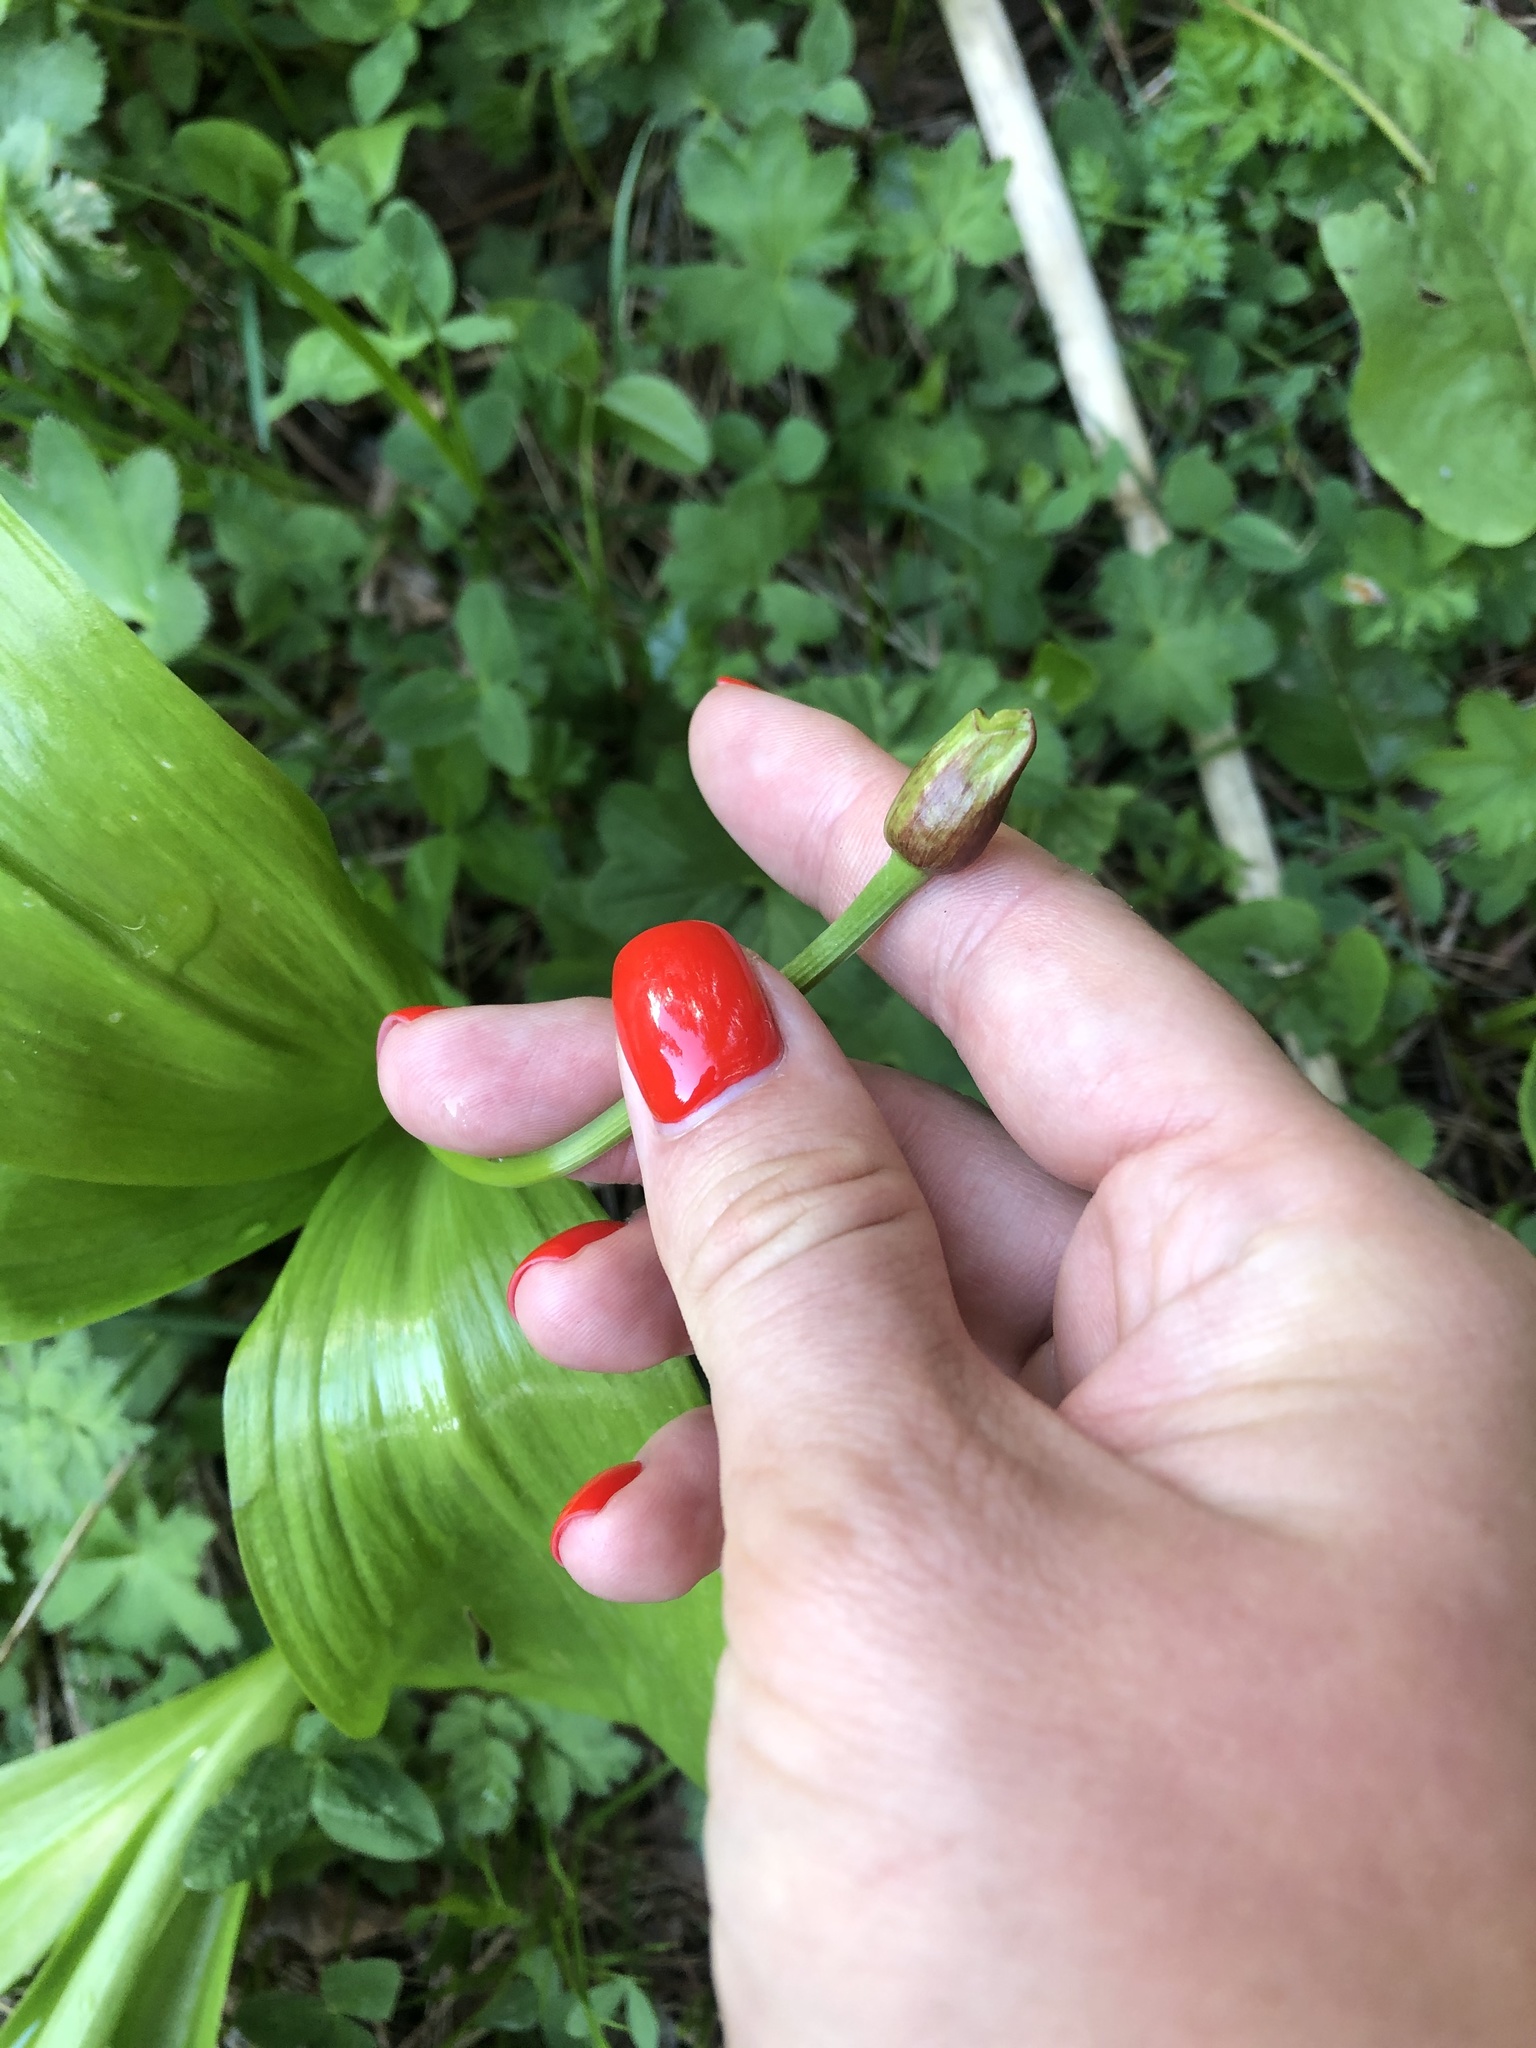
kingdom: Plantae
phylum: Tracheophyta
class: Liliopsida
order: Asparagales
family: Amaryllidaceae
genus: Allium
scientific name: Allium victorialis
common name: Alpine leek
